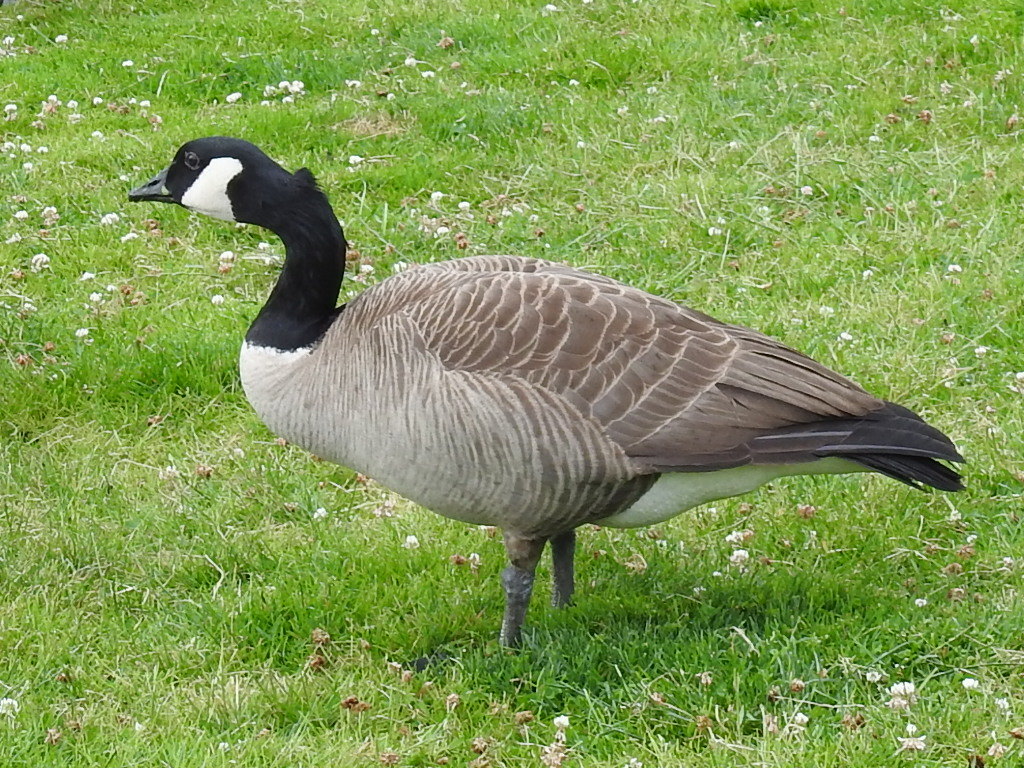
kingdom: Animalia
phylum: Chordata
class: Aves
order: Anseriformes
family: Anatidae
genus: Branta
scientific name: Branta canadensis
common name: Canada goose
